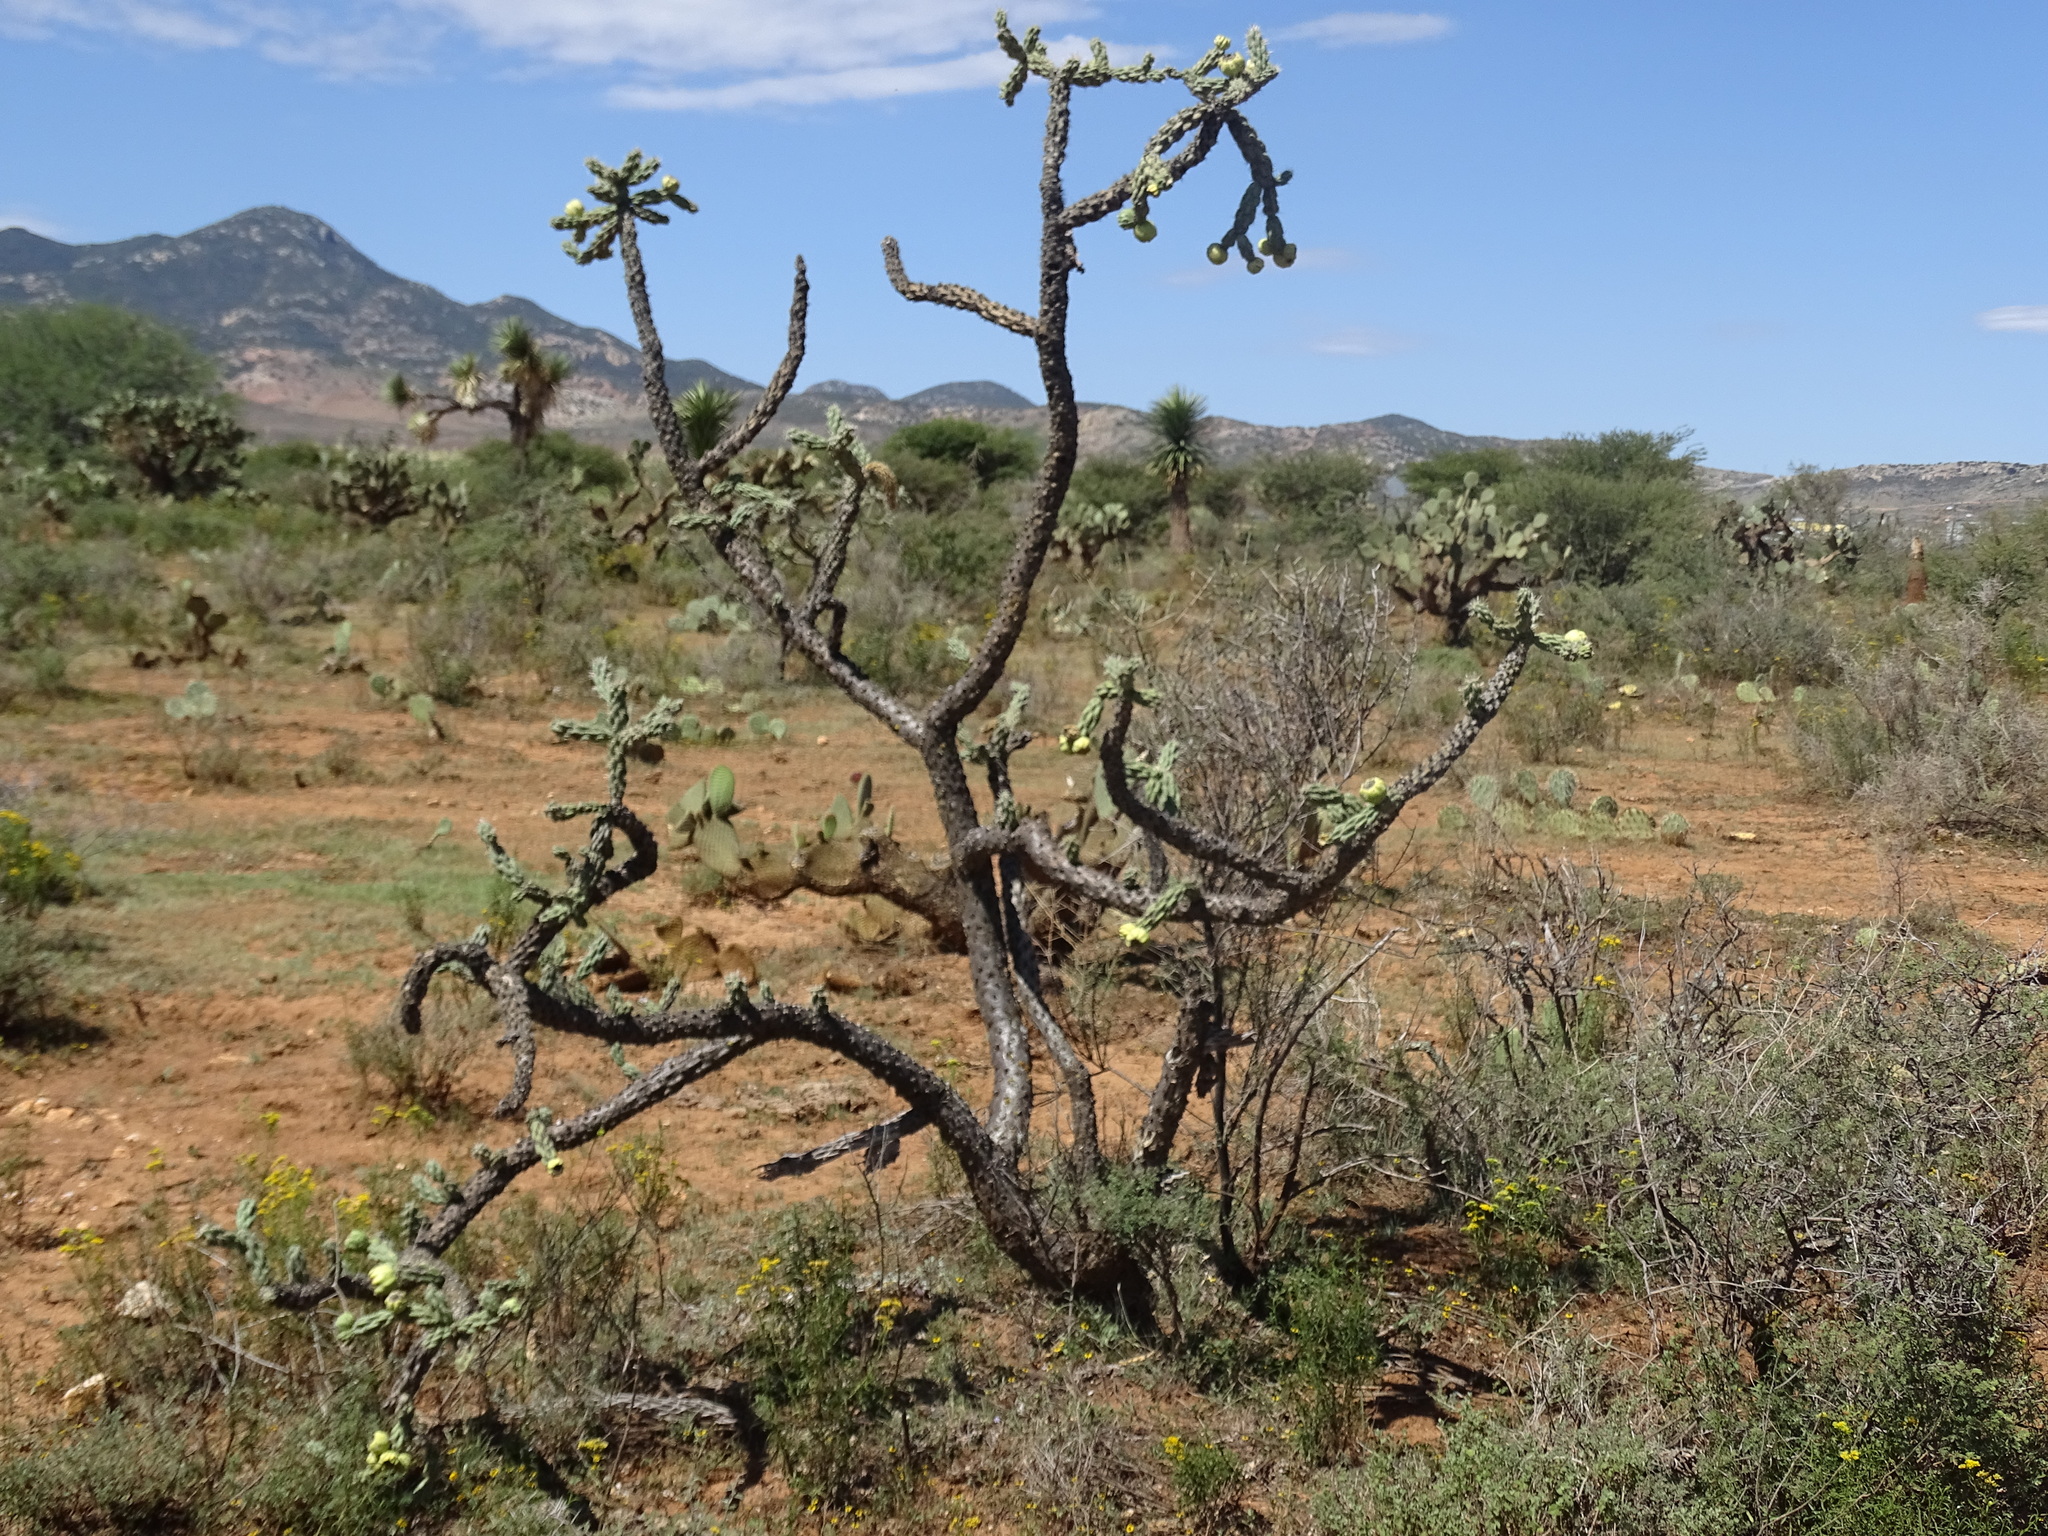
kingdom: Plantae
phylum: Tracheophyta
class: Magnoliopsida
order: Caryophyllales
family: Cactaceae
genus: Cylindropuntia
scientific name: Cylindropuntia imbricata
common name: Candelabrum cactus
